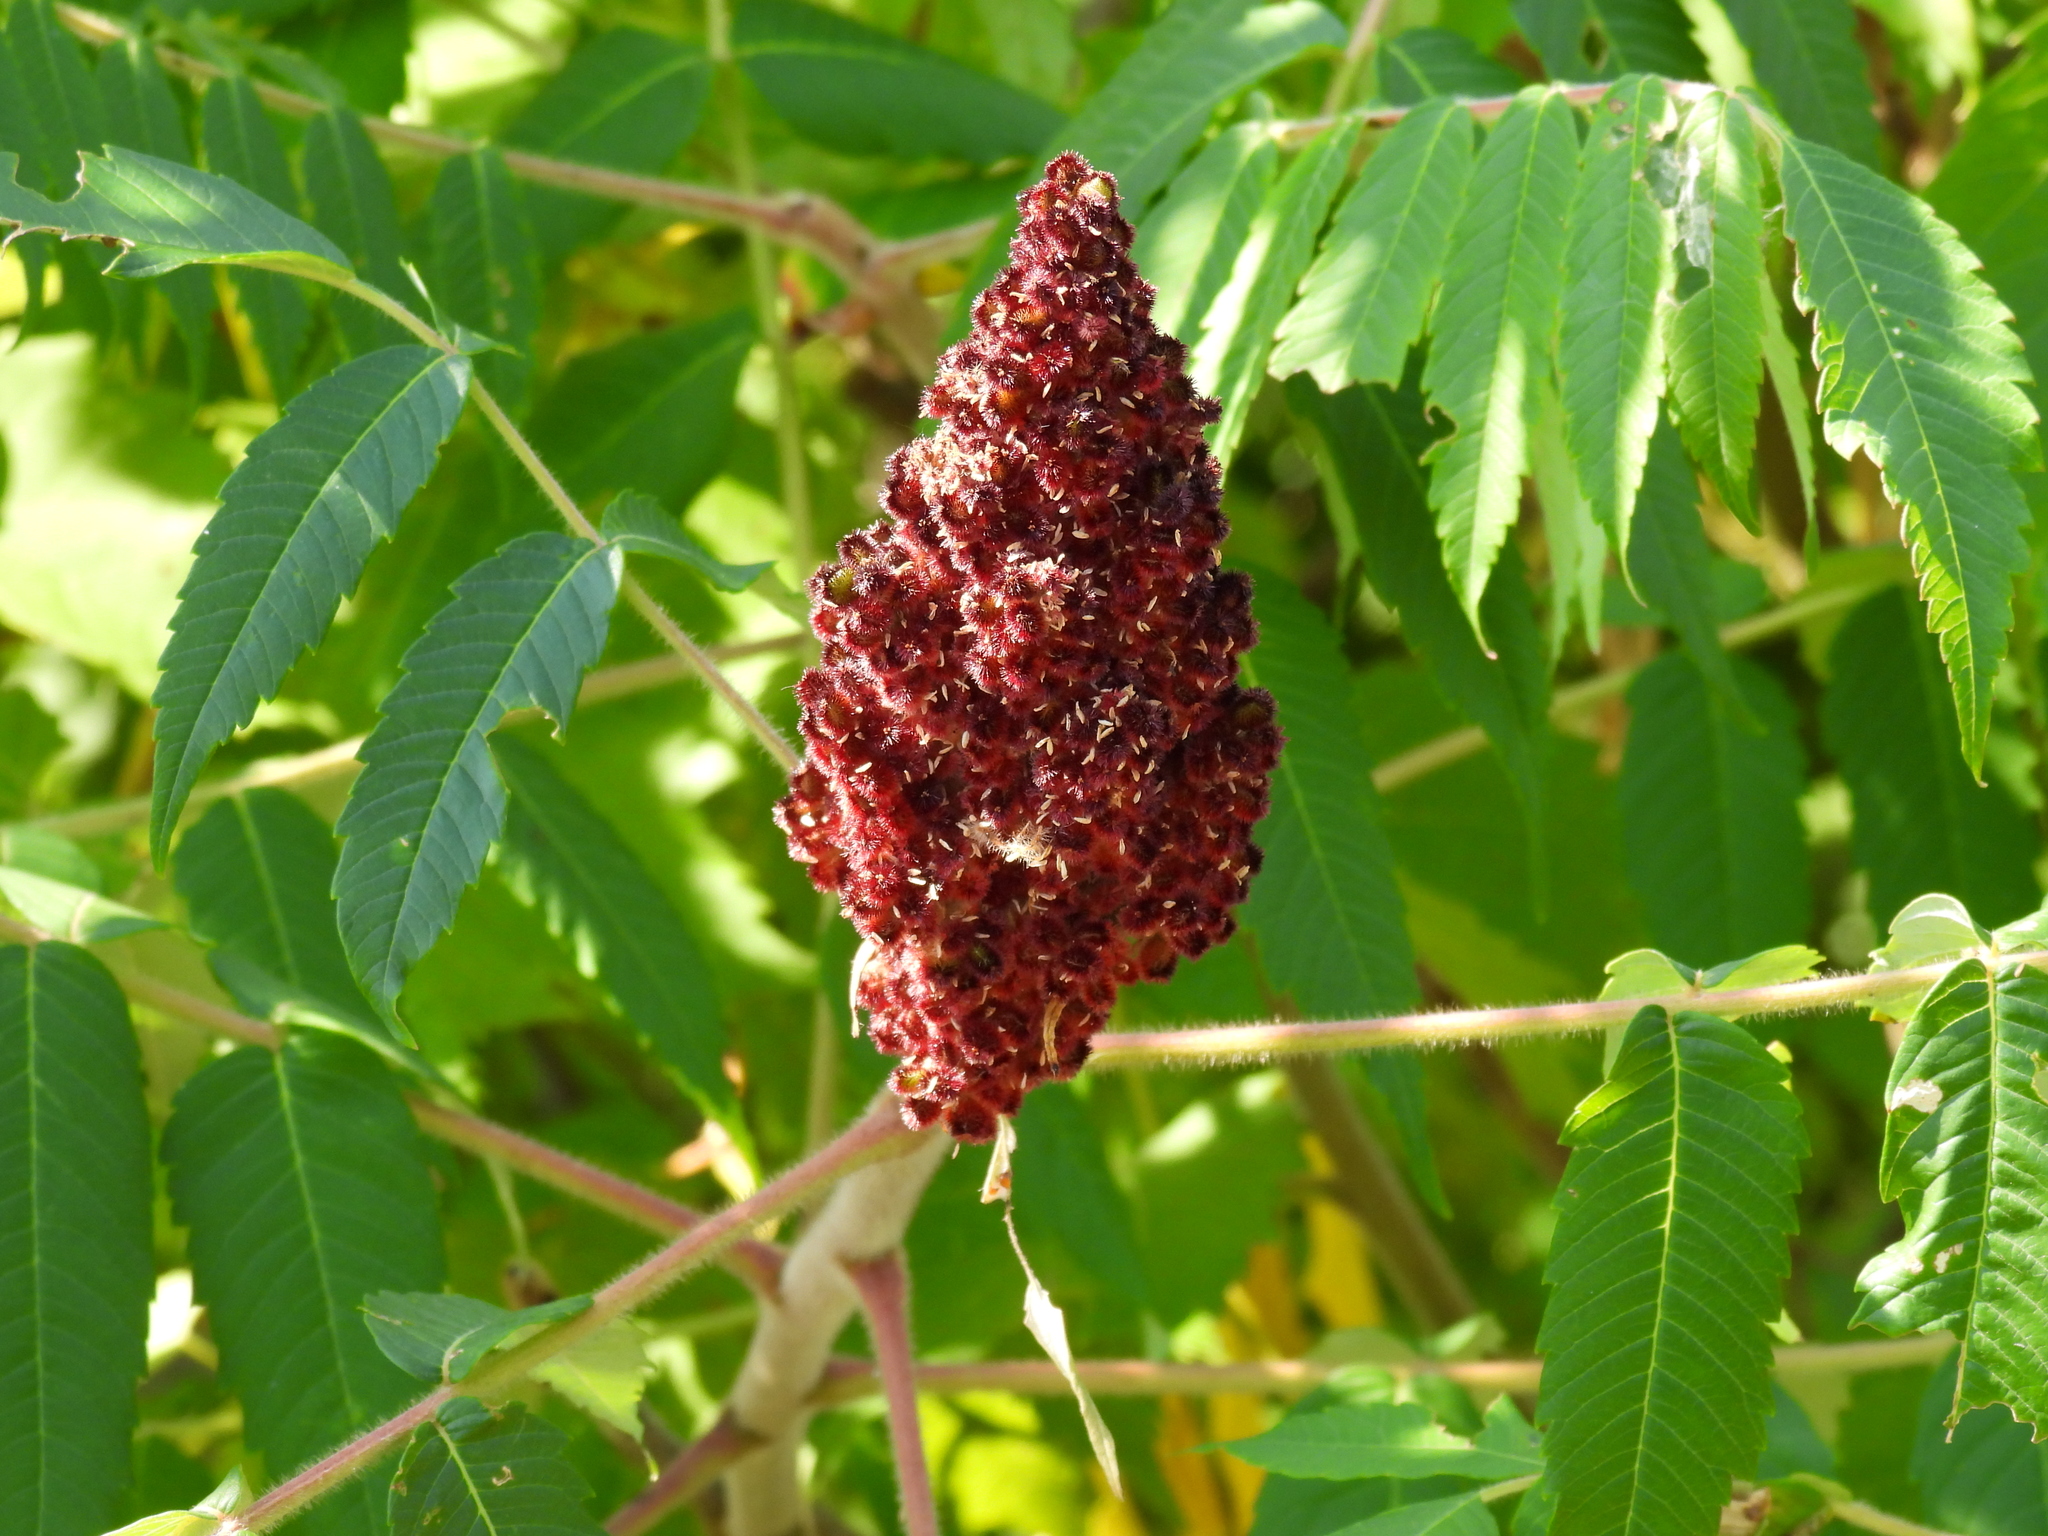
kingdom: Plantae
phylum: Tracheophyta
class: Magnoliopsida
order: Sapindales
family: Anacardiaceae
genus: Rhus
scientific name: Rhus typhina
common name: Staghorn sumac
